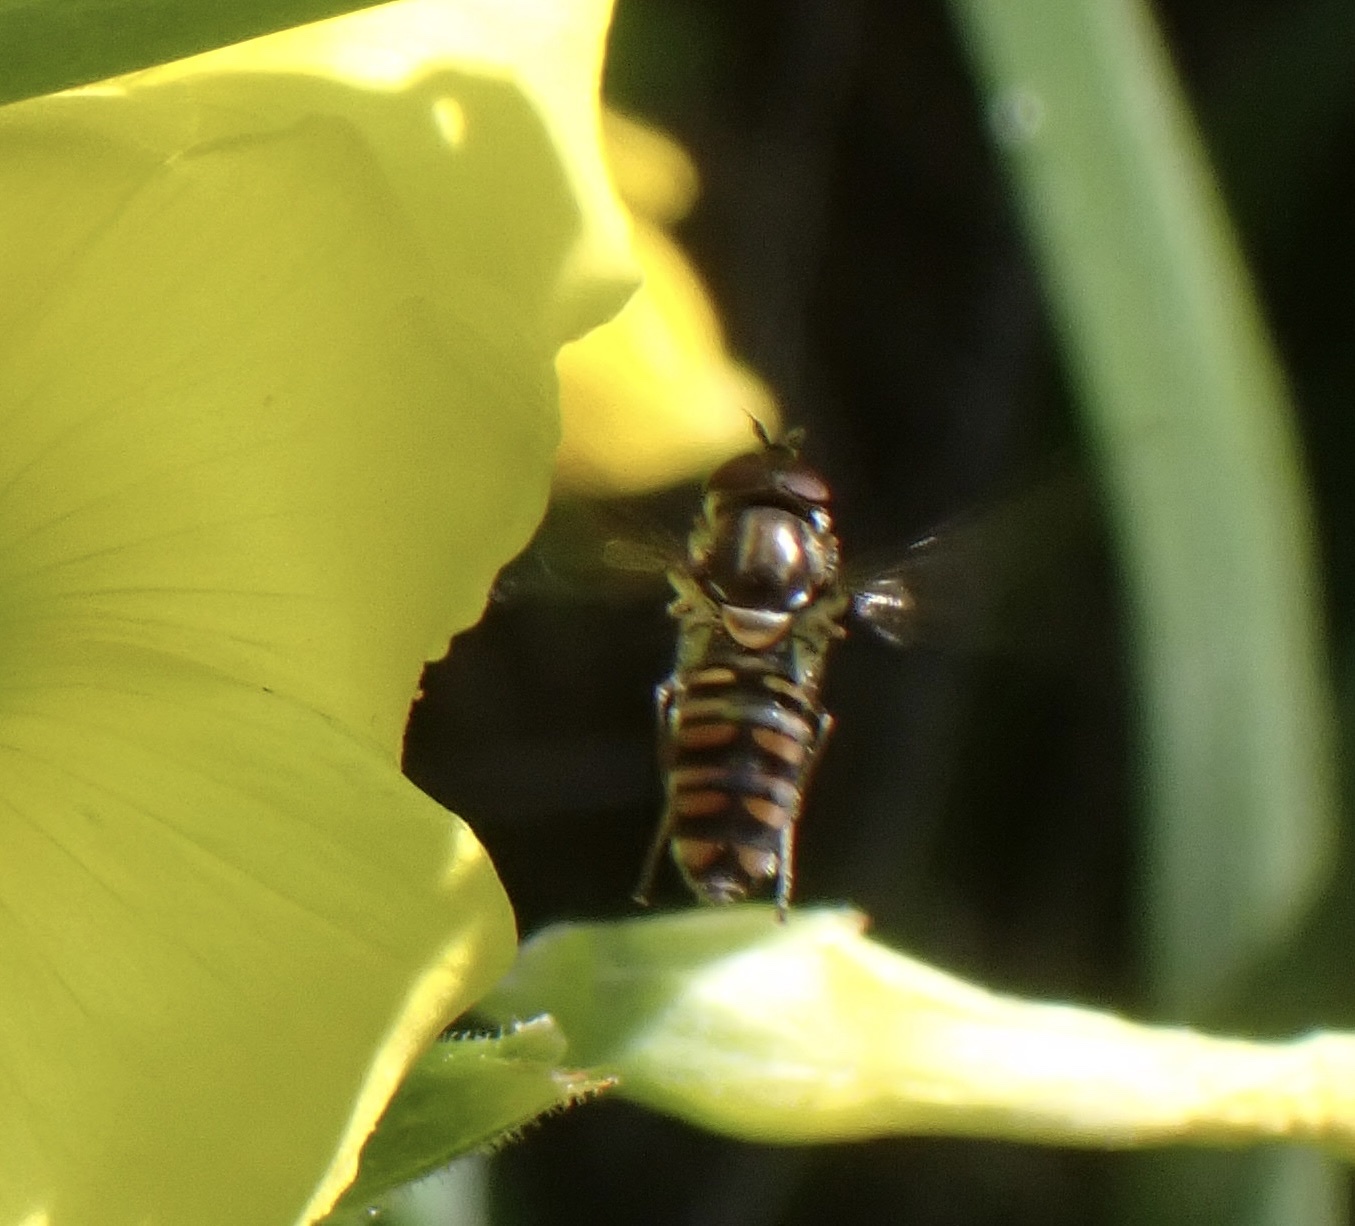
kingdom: Animalia
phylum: Arthropoda
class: Insecta
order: Diptera
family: Syrphidae
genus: Episyrphus
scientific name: Episyrphus balteatus
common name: Marmalade hoverfly
